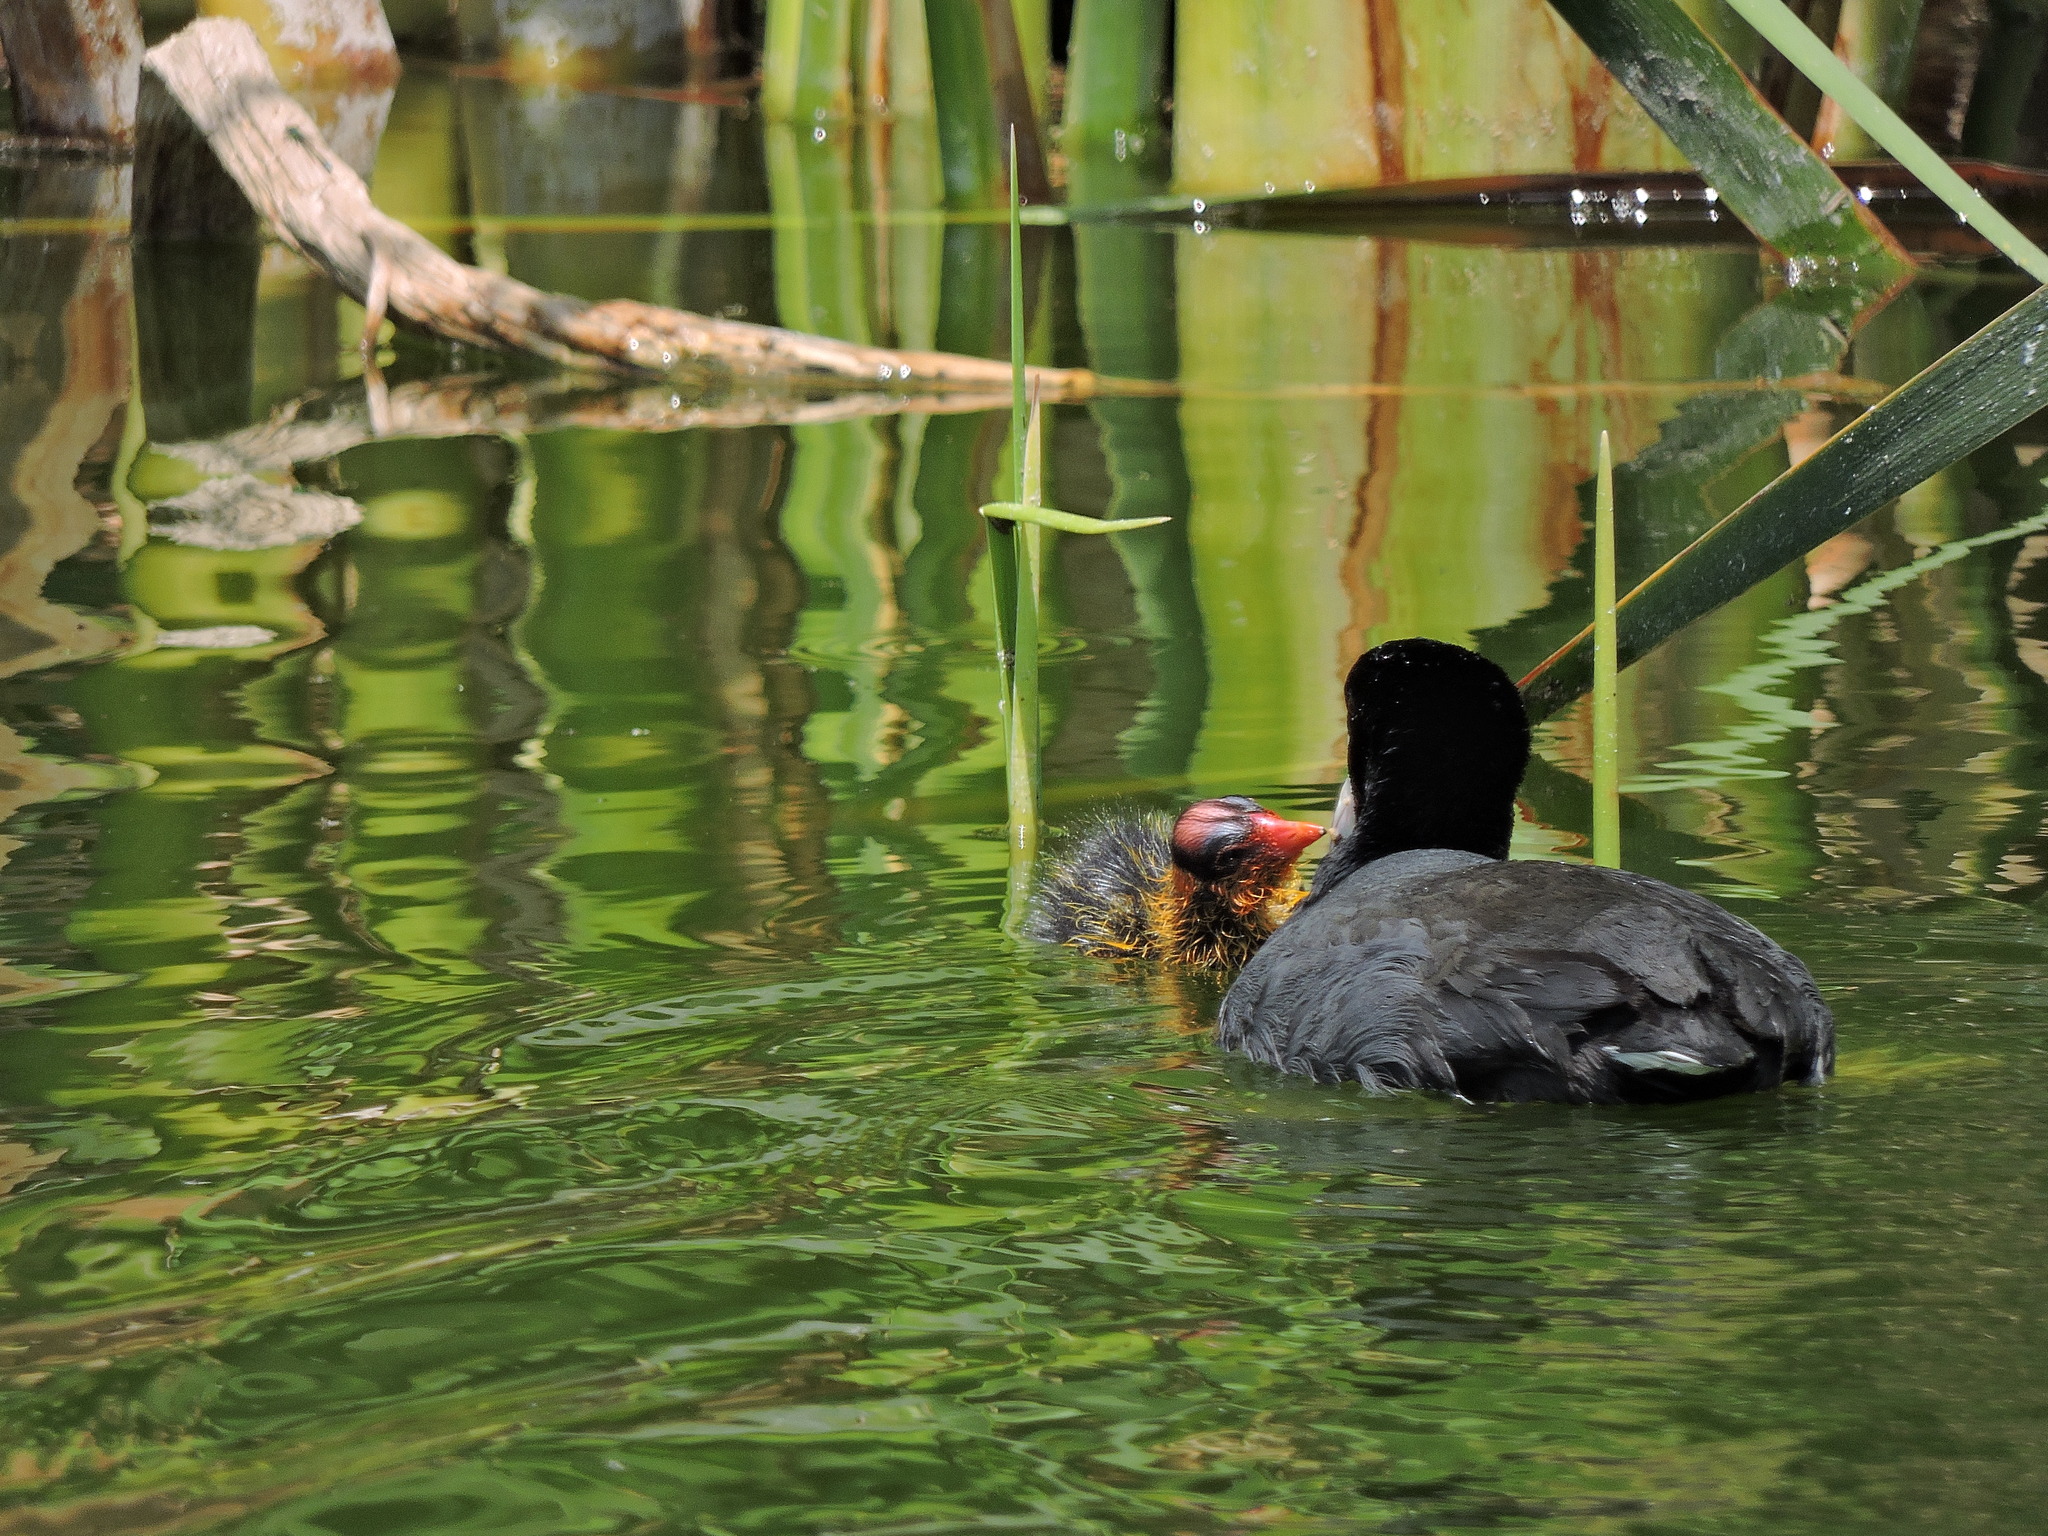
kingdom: Animalia
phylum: Chordata
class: Aves
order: Gruiformes
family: Rallidae
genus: Fulica
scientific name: Fulica americana
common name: American coot
